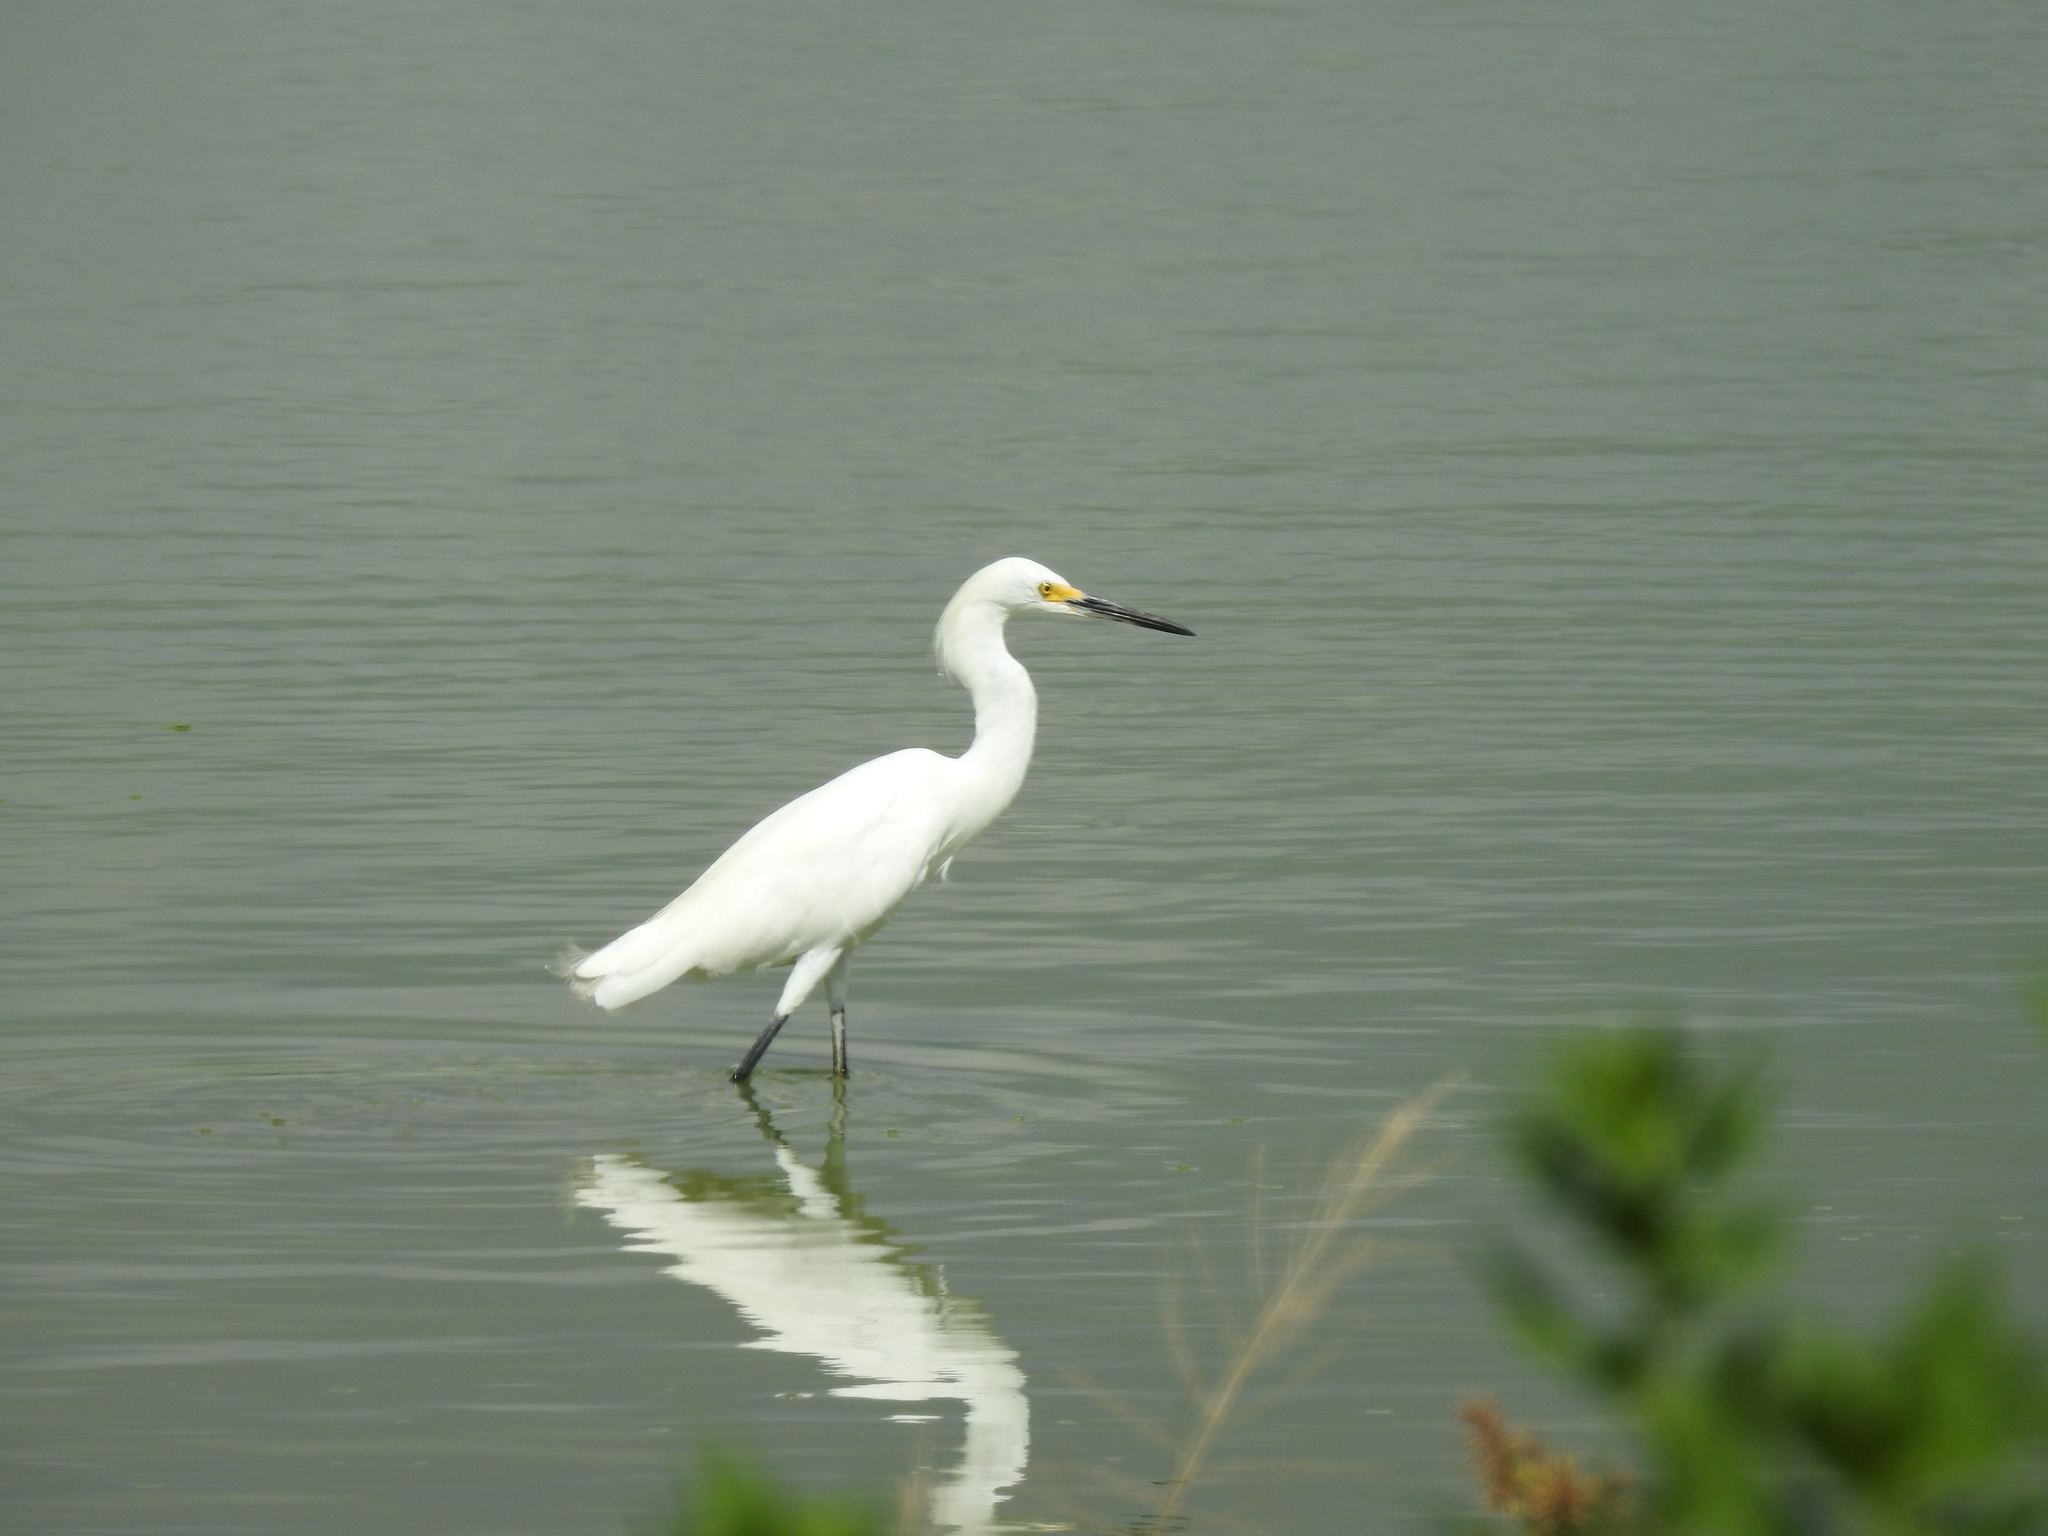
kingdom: Animalia
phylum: Chordata
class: Aves
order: Pelecaniformes
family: Ardeidae
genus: Egretta
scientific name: Egretta thula
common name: Snowy egret
